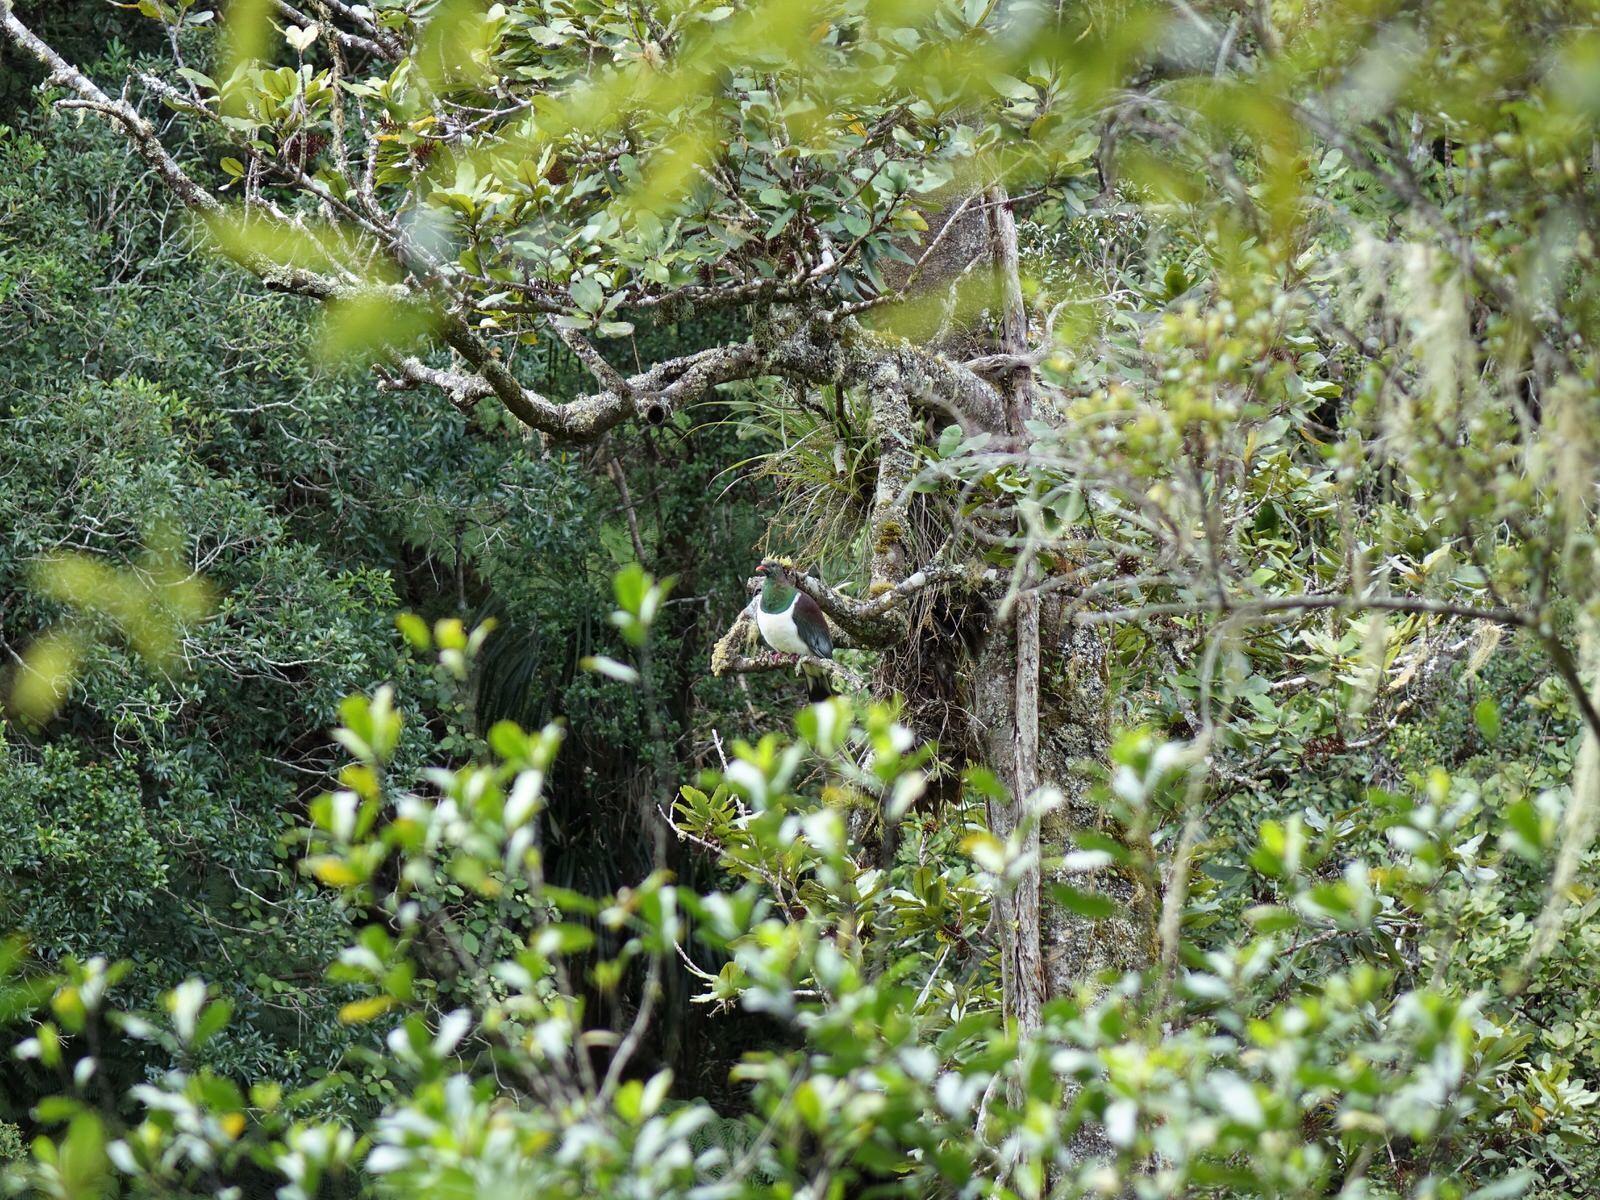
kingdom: Animalia
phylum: Chordata
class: Aves
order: Columbiformes
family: Columbidae
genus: Hemiphaga
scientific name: Hemiphaga novaeseelandiae
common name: New zealand pigeon
